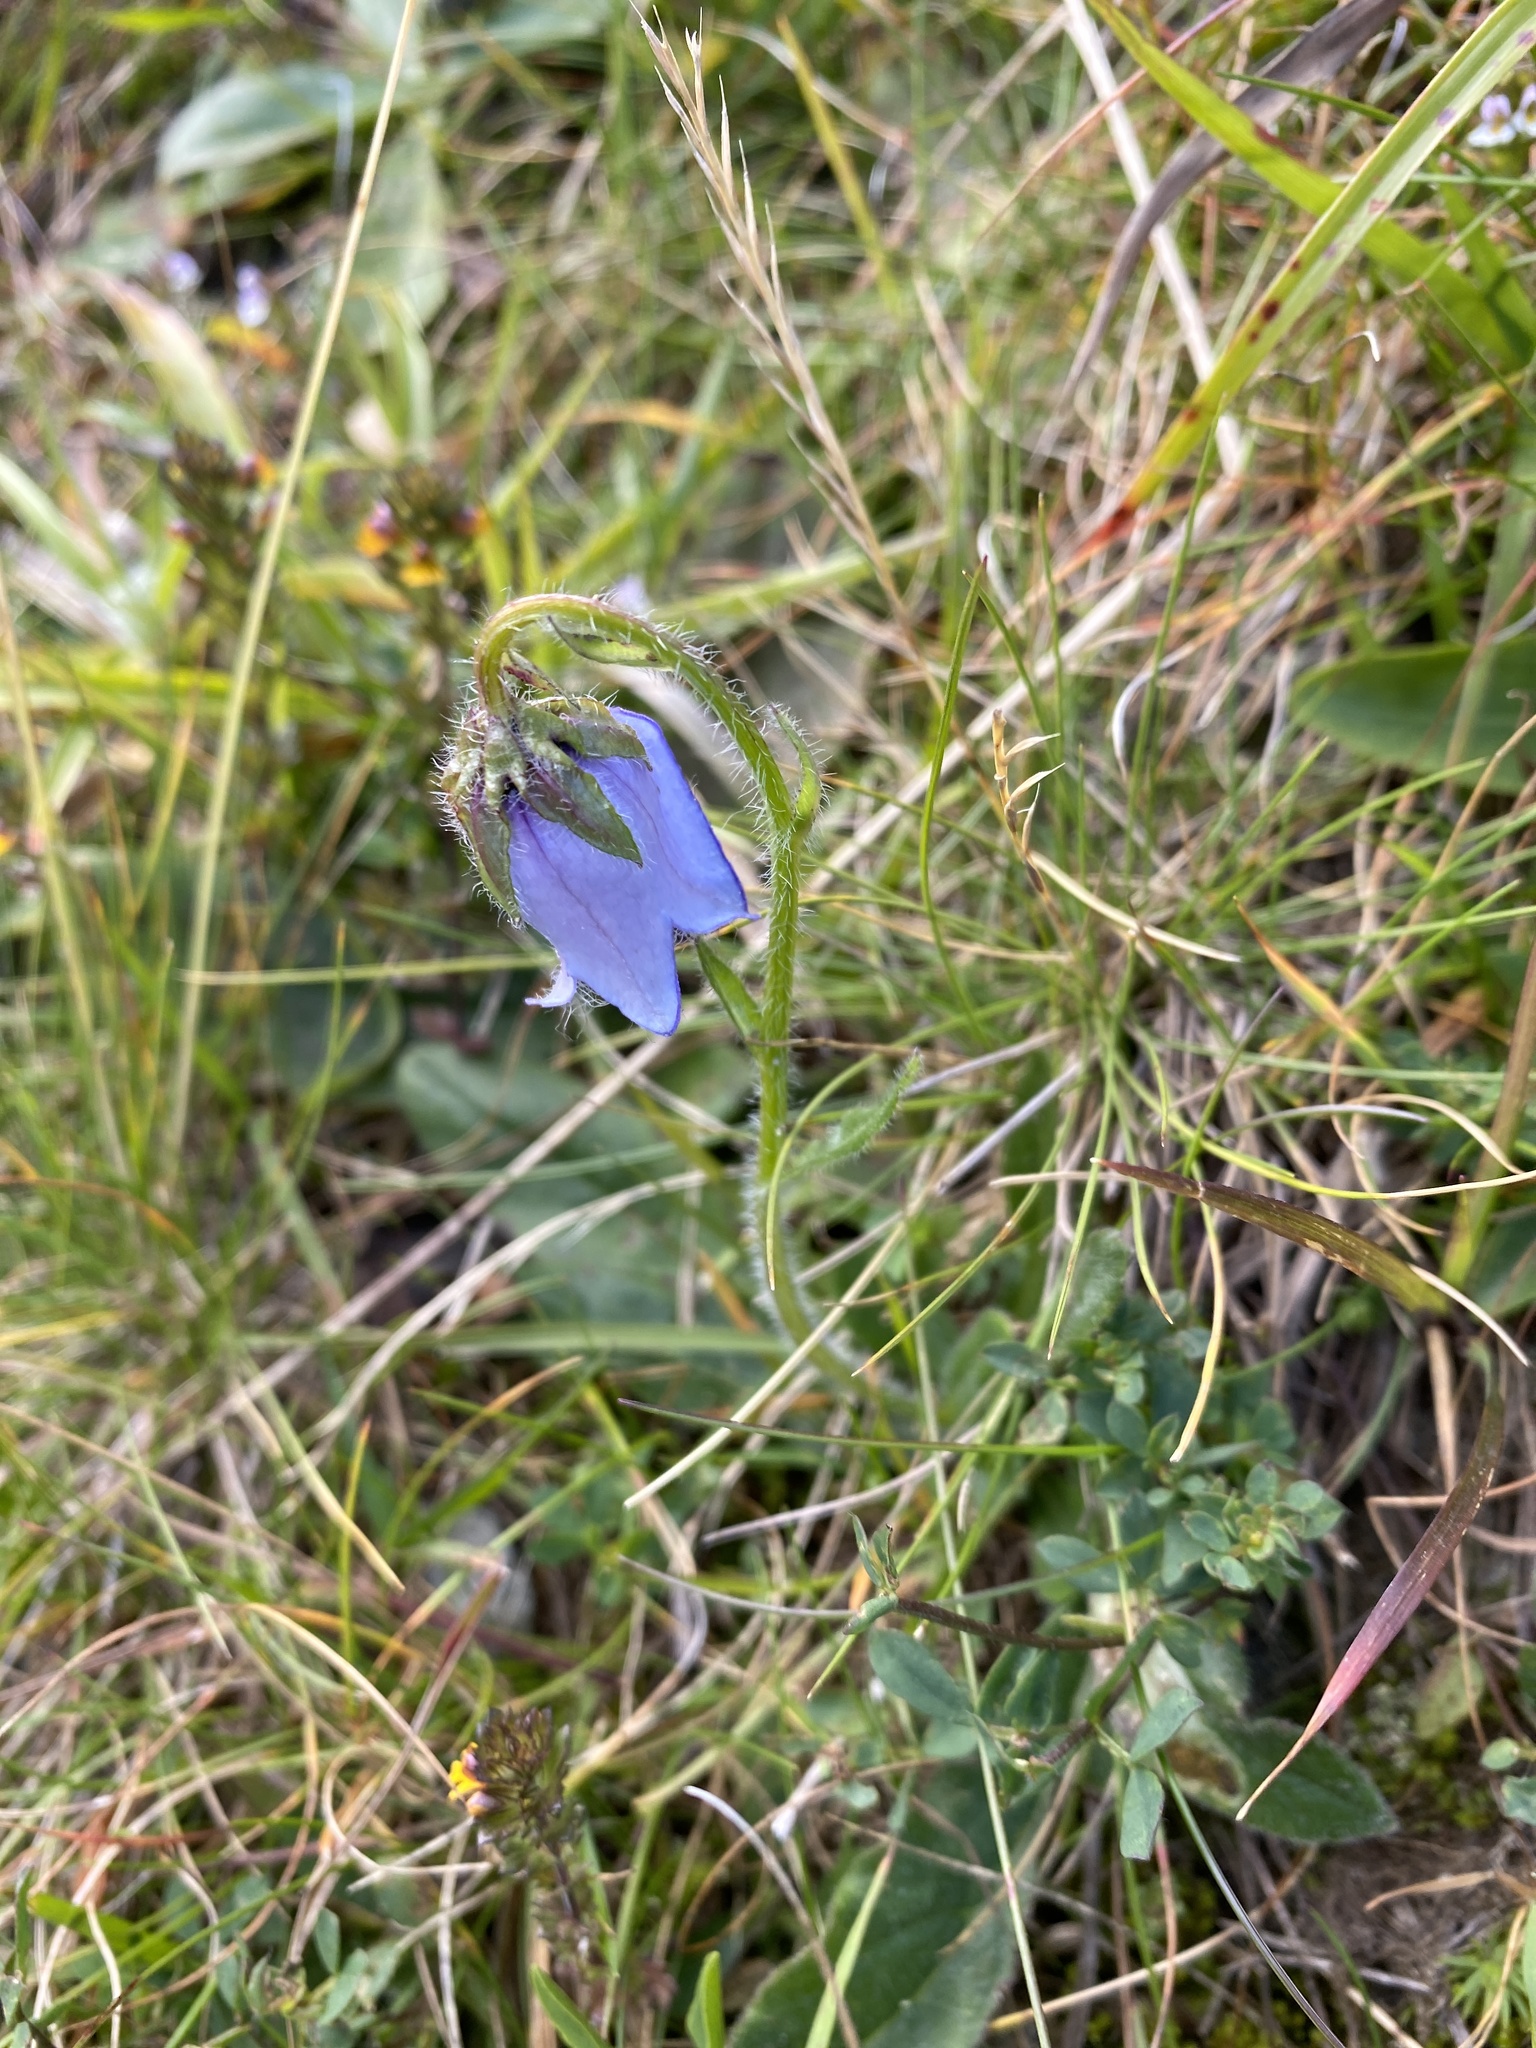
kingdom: Plantae
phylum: Tracheophyta
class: Magnoliopsida
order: Asterales
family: Campanulaceae
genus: Campanula
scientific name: Campanula barbata
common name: Bearded bellflower
